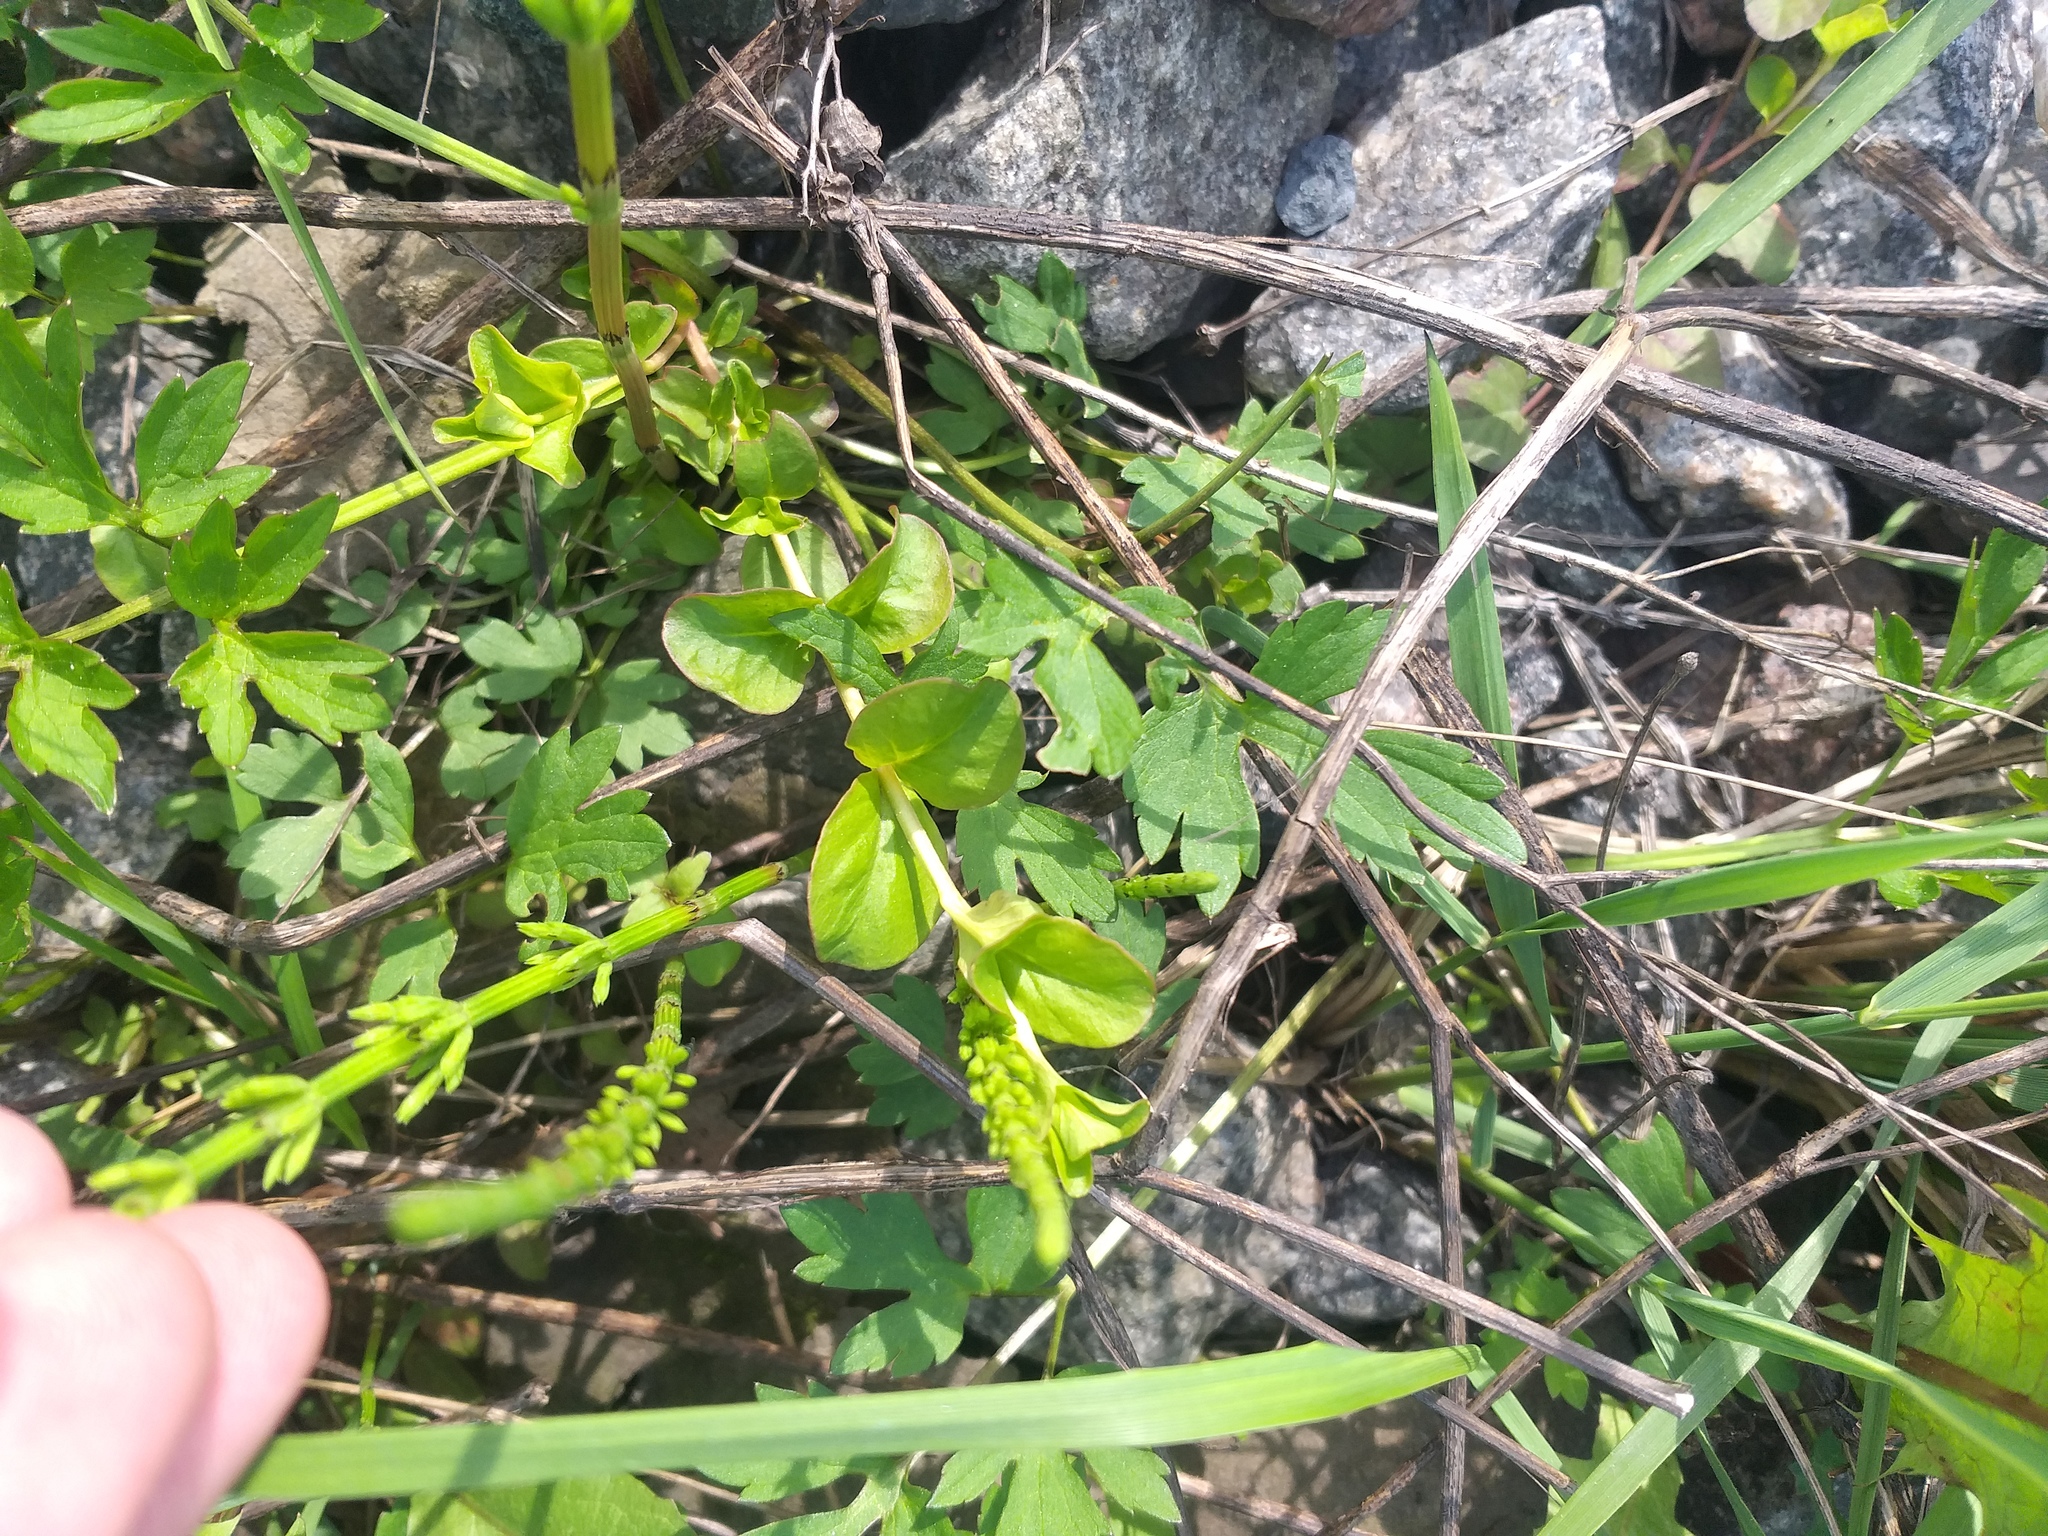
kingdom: Plantae
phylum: Tracheophyta
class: Magnoliopsida
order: Ericales
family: Primulaceae
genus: Lysimachia
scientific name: Lysimachia nummularia
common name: Moneywort
